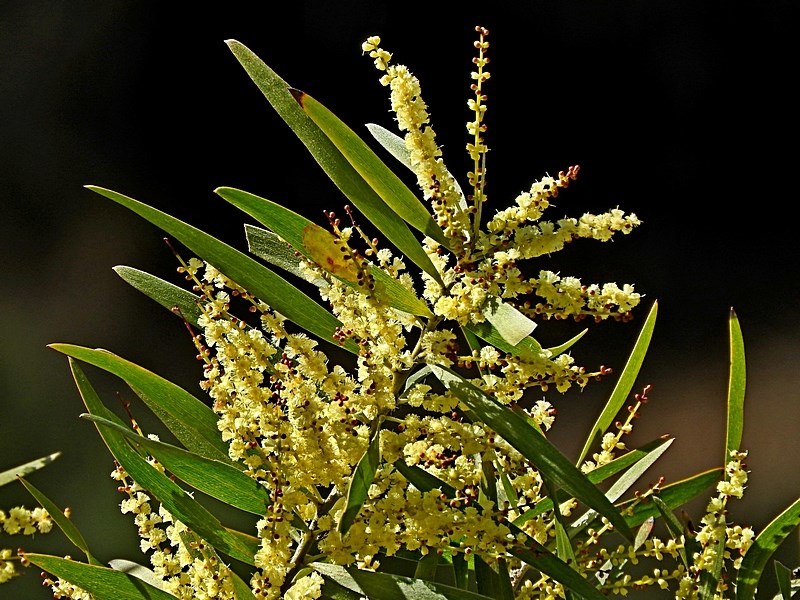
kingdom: Plantae
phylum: Tracheophyta
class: Magnoliopsida
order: Fabales
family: Fabaceae
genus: Acacia
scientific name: Acacia floribunda
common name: Gossamer wattle
